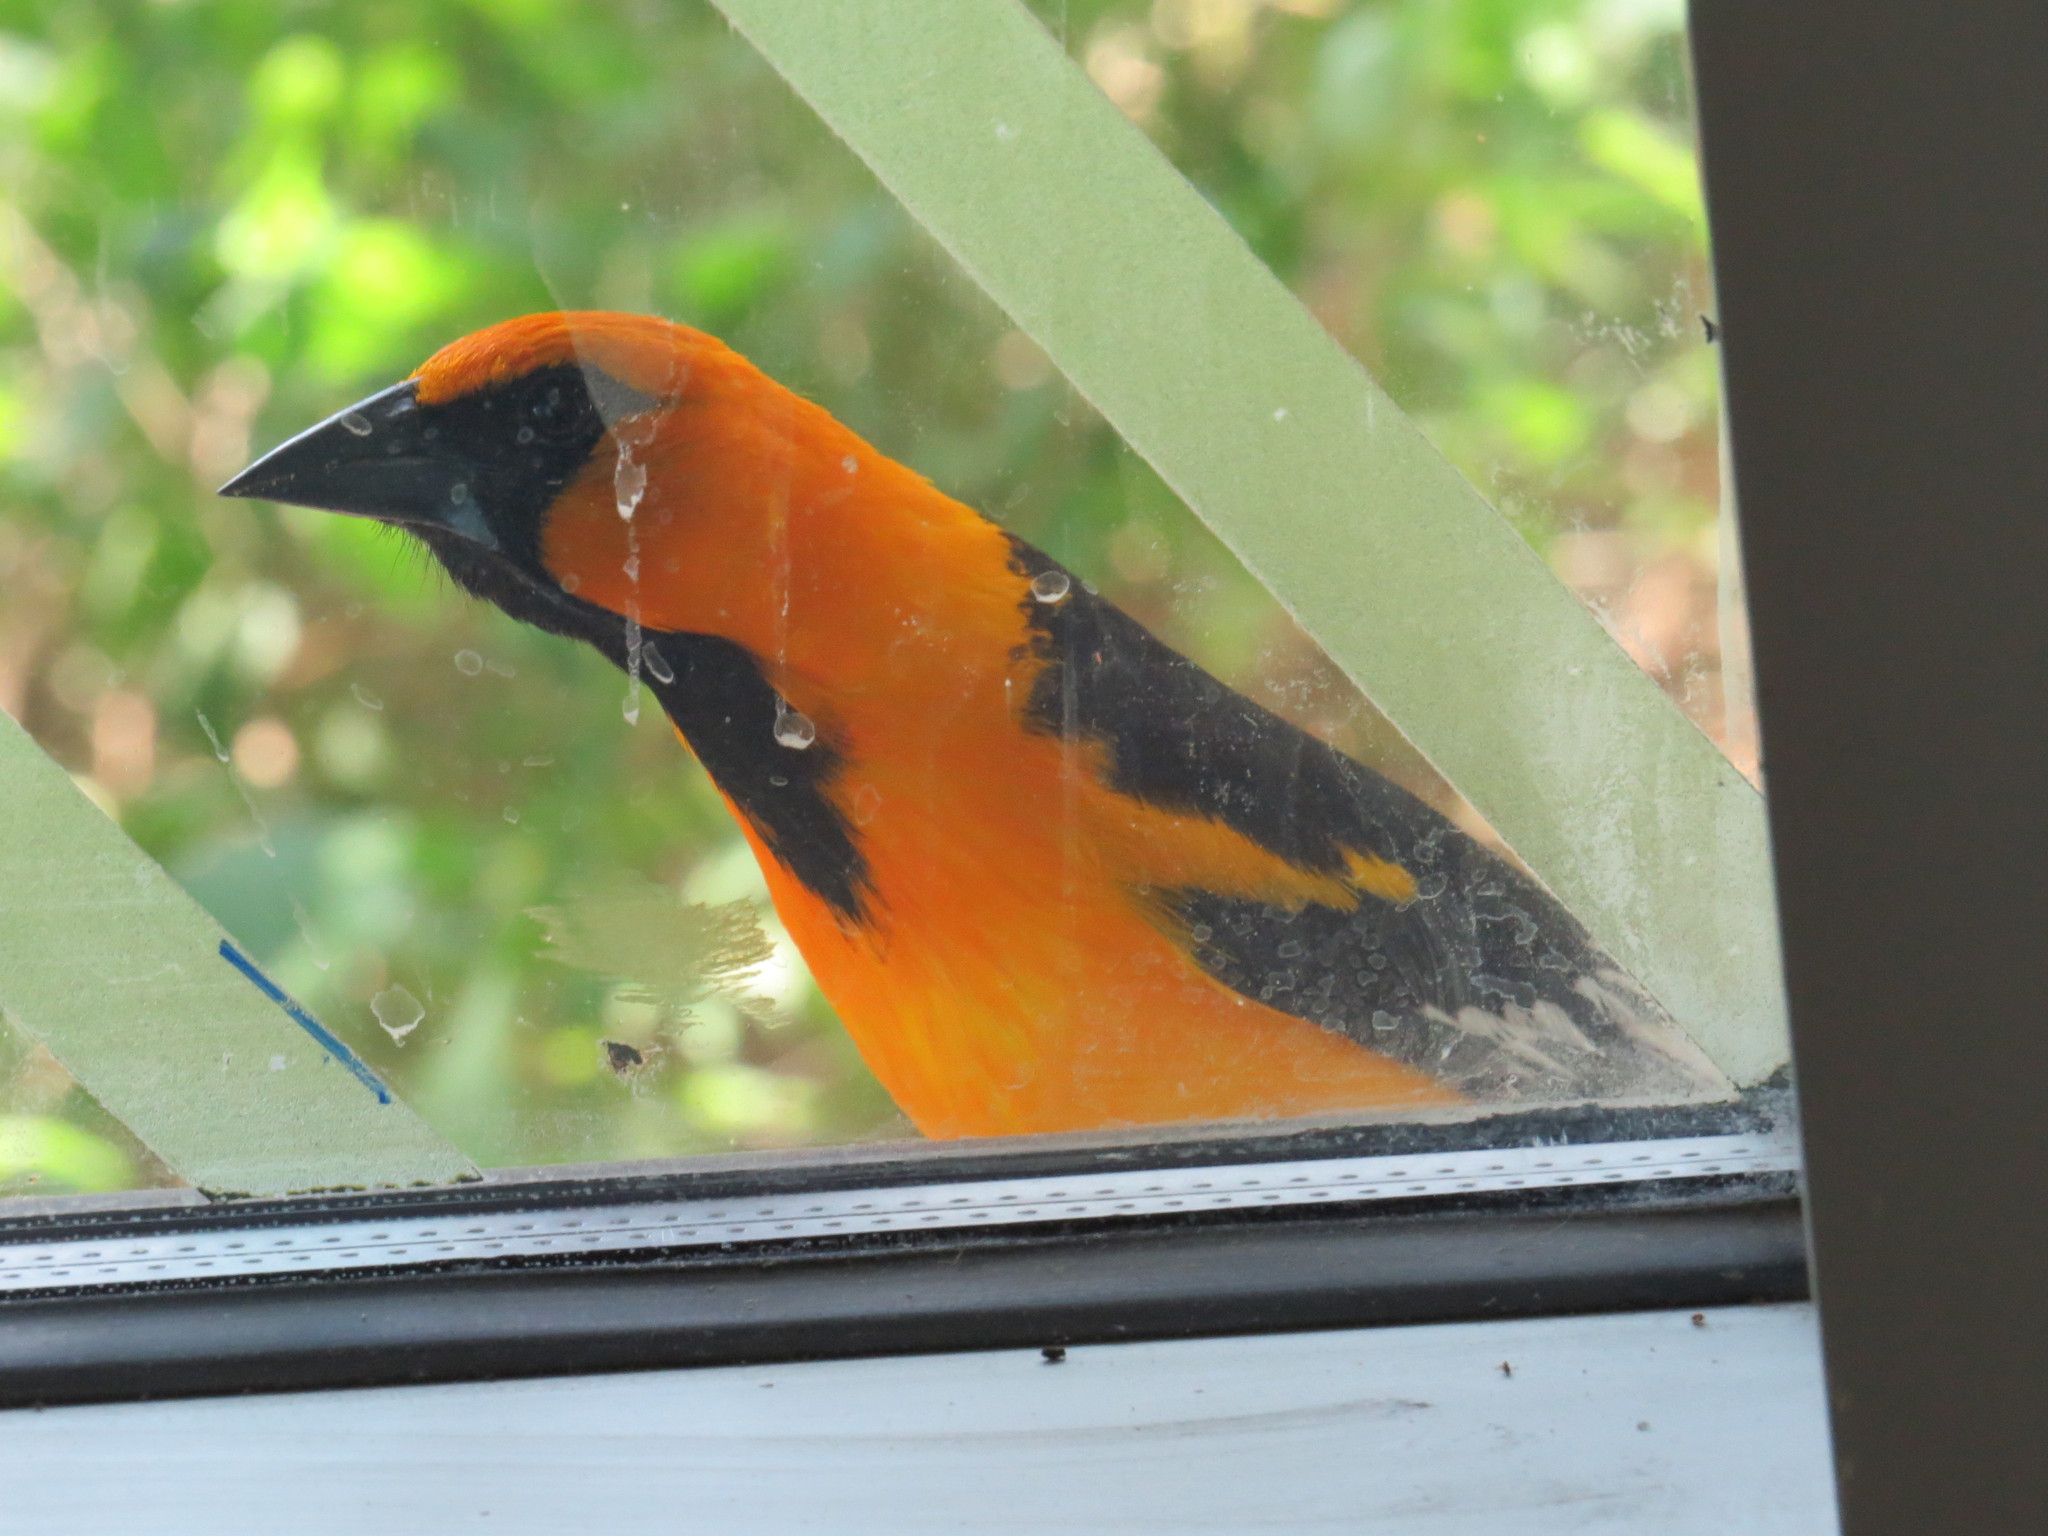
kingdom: Animalia
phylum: Chordata
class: Aves
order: Passeriformes
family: Icteridae
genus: Icterus
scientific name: Icterus gularis
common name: Altamira oriole
